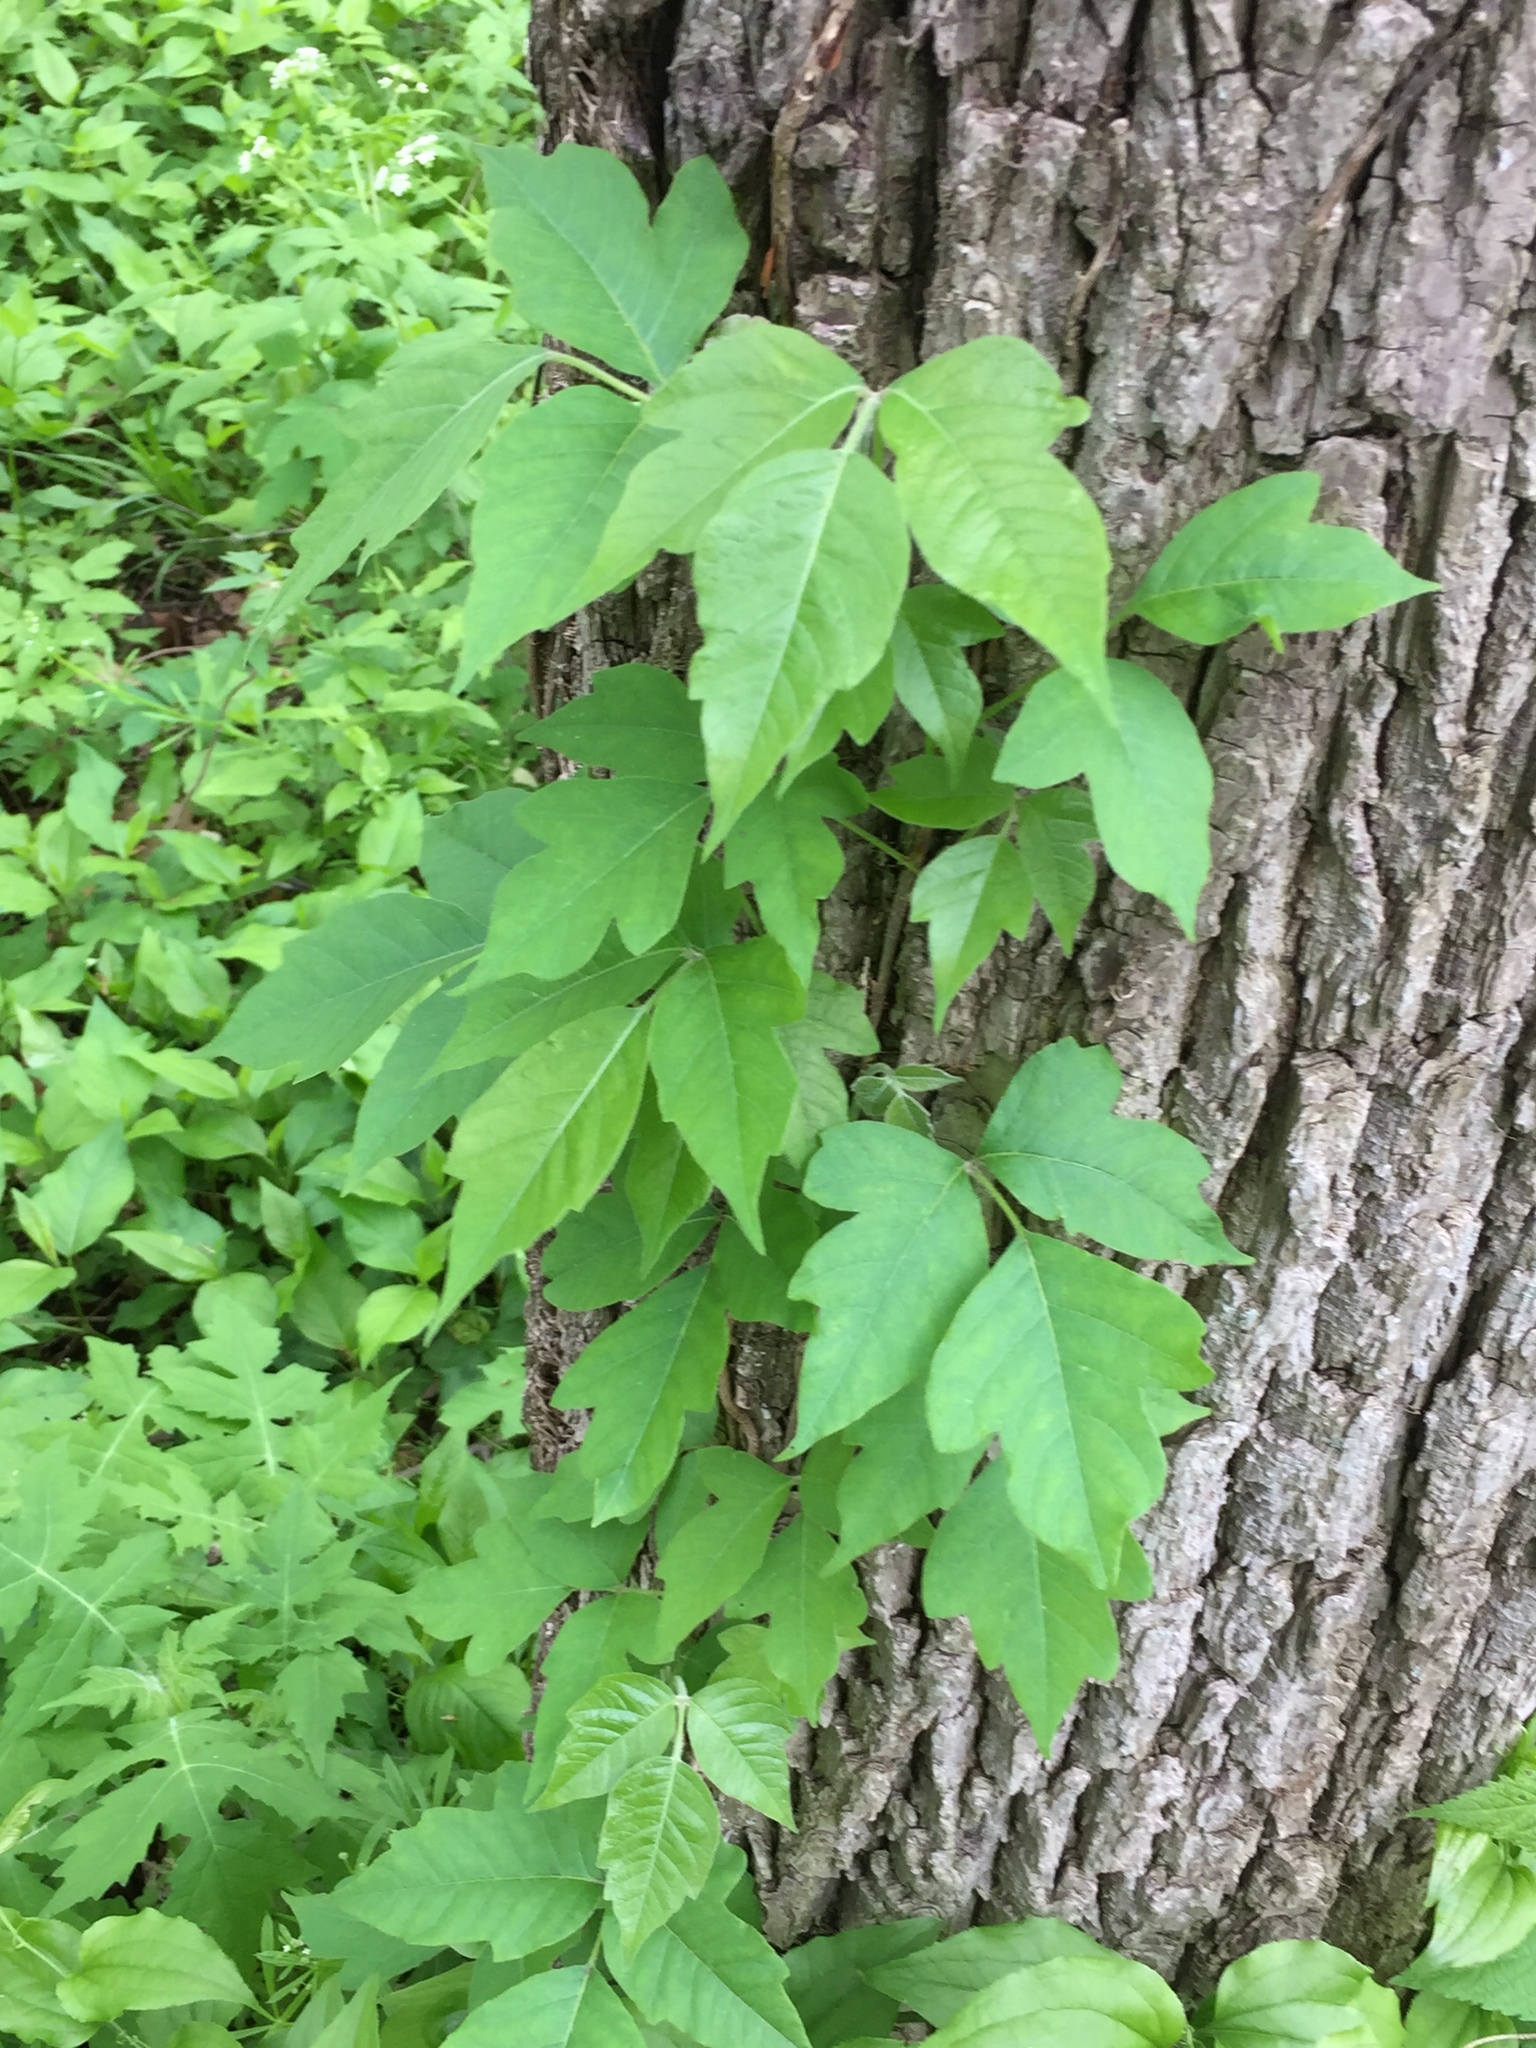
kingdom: Plantae
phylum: Tracheophyta
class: Magnoliopsida
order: Sapindales
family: Anacardiaceae
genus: Toxicodendron
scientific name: Toxicodendron radicans
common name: Poison ivy
